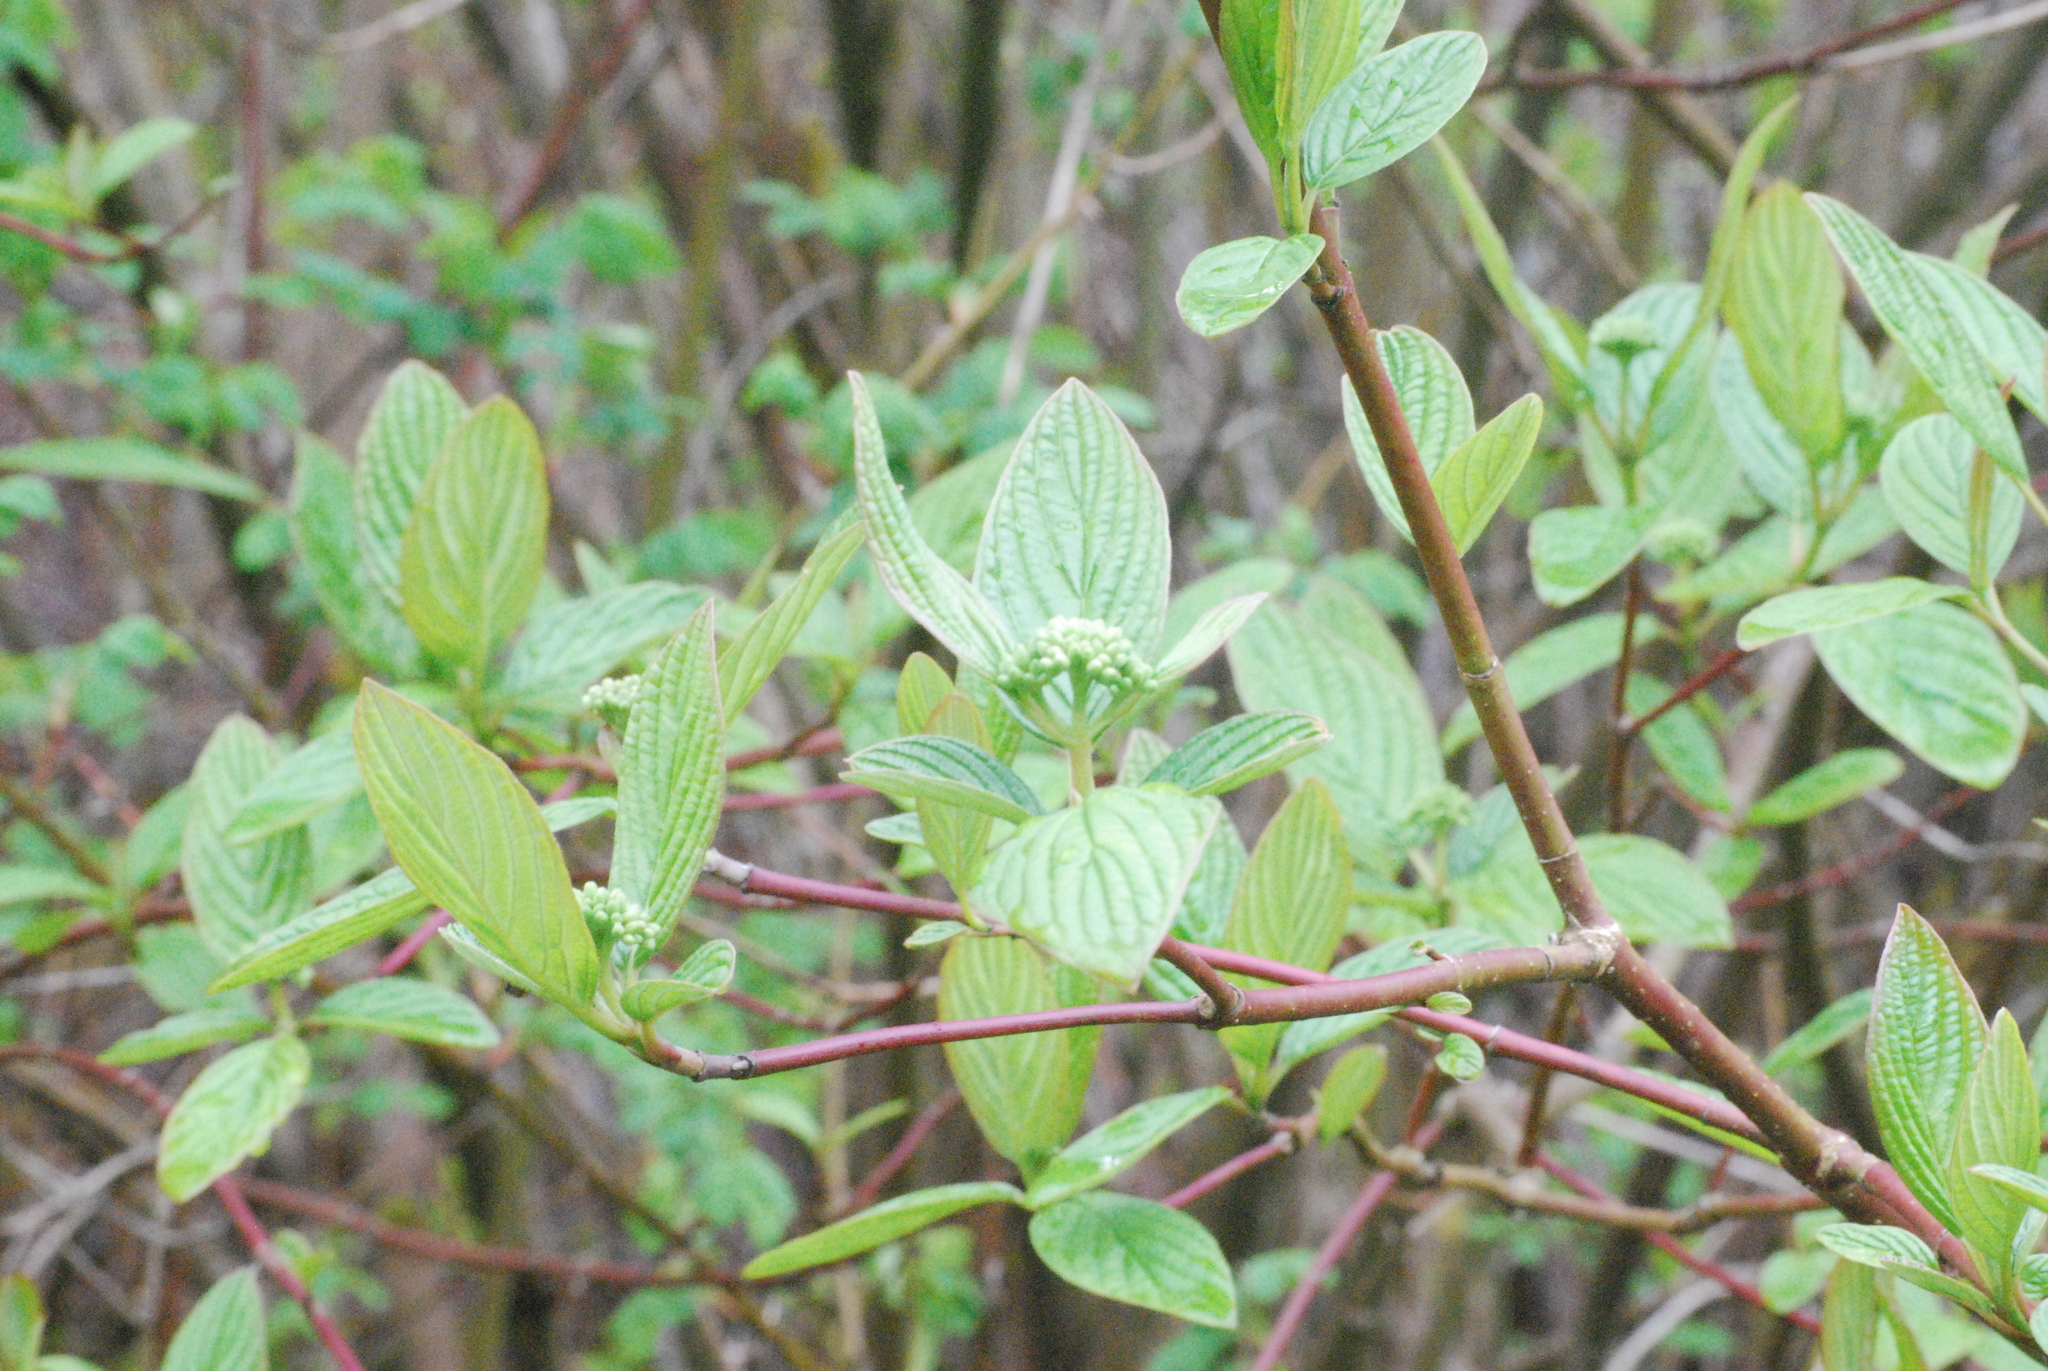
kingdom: Plantae
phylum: Tracheophyta
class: Magnoliopsida
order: Cornales
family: Cornaceae
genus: Cornus
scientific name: Cornus sericea
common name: Red-osier dogwood
